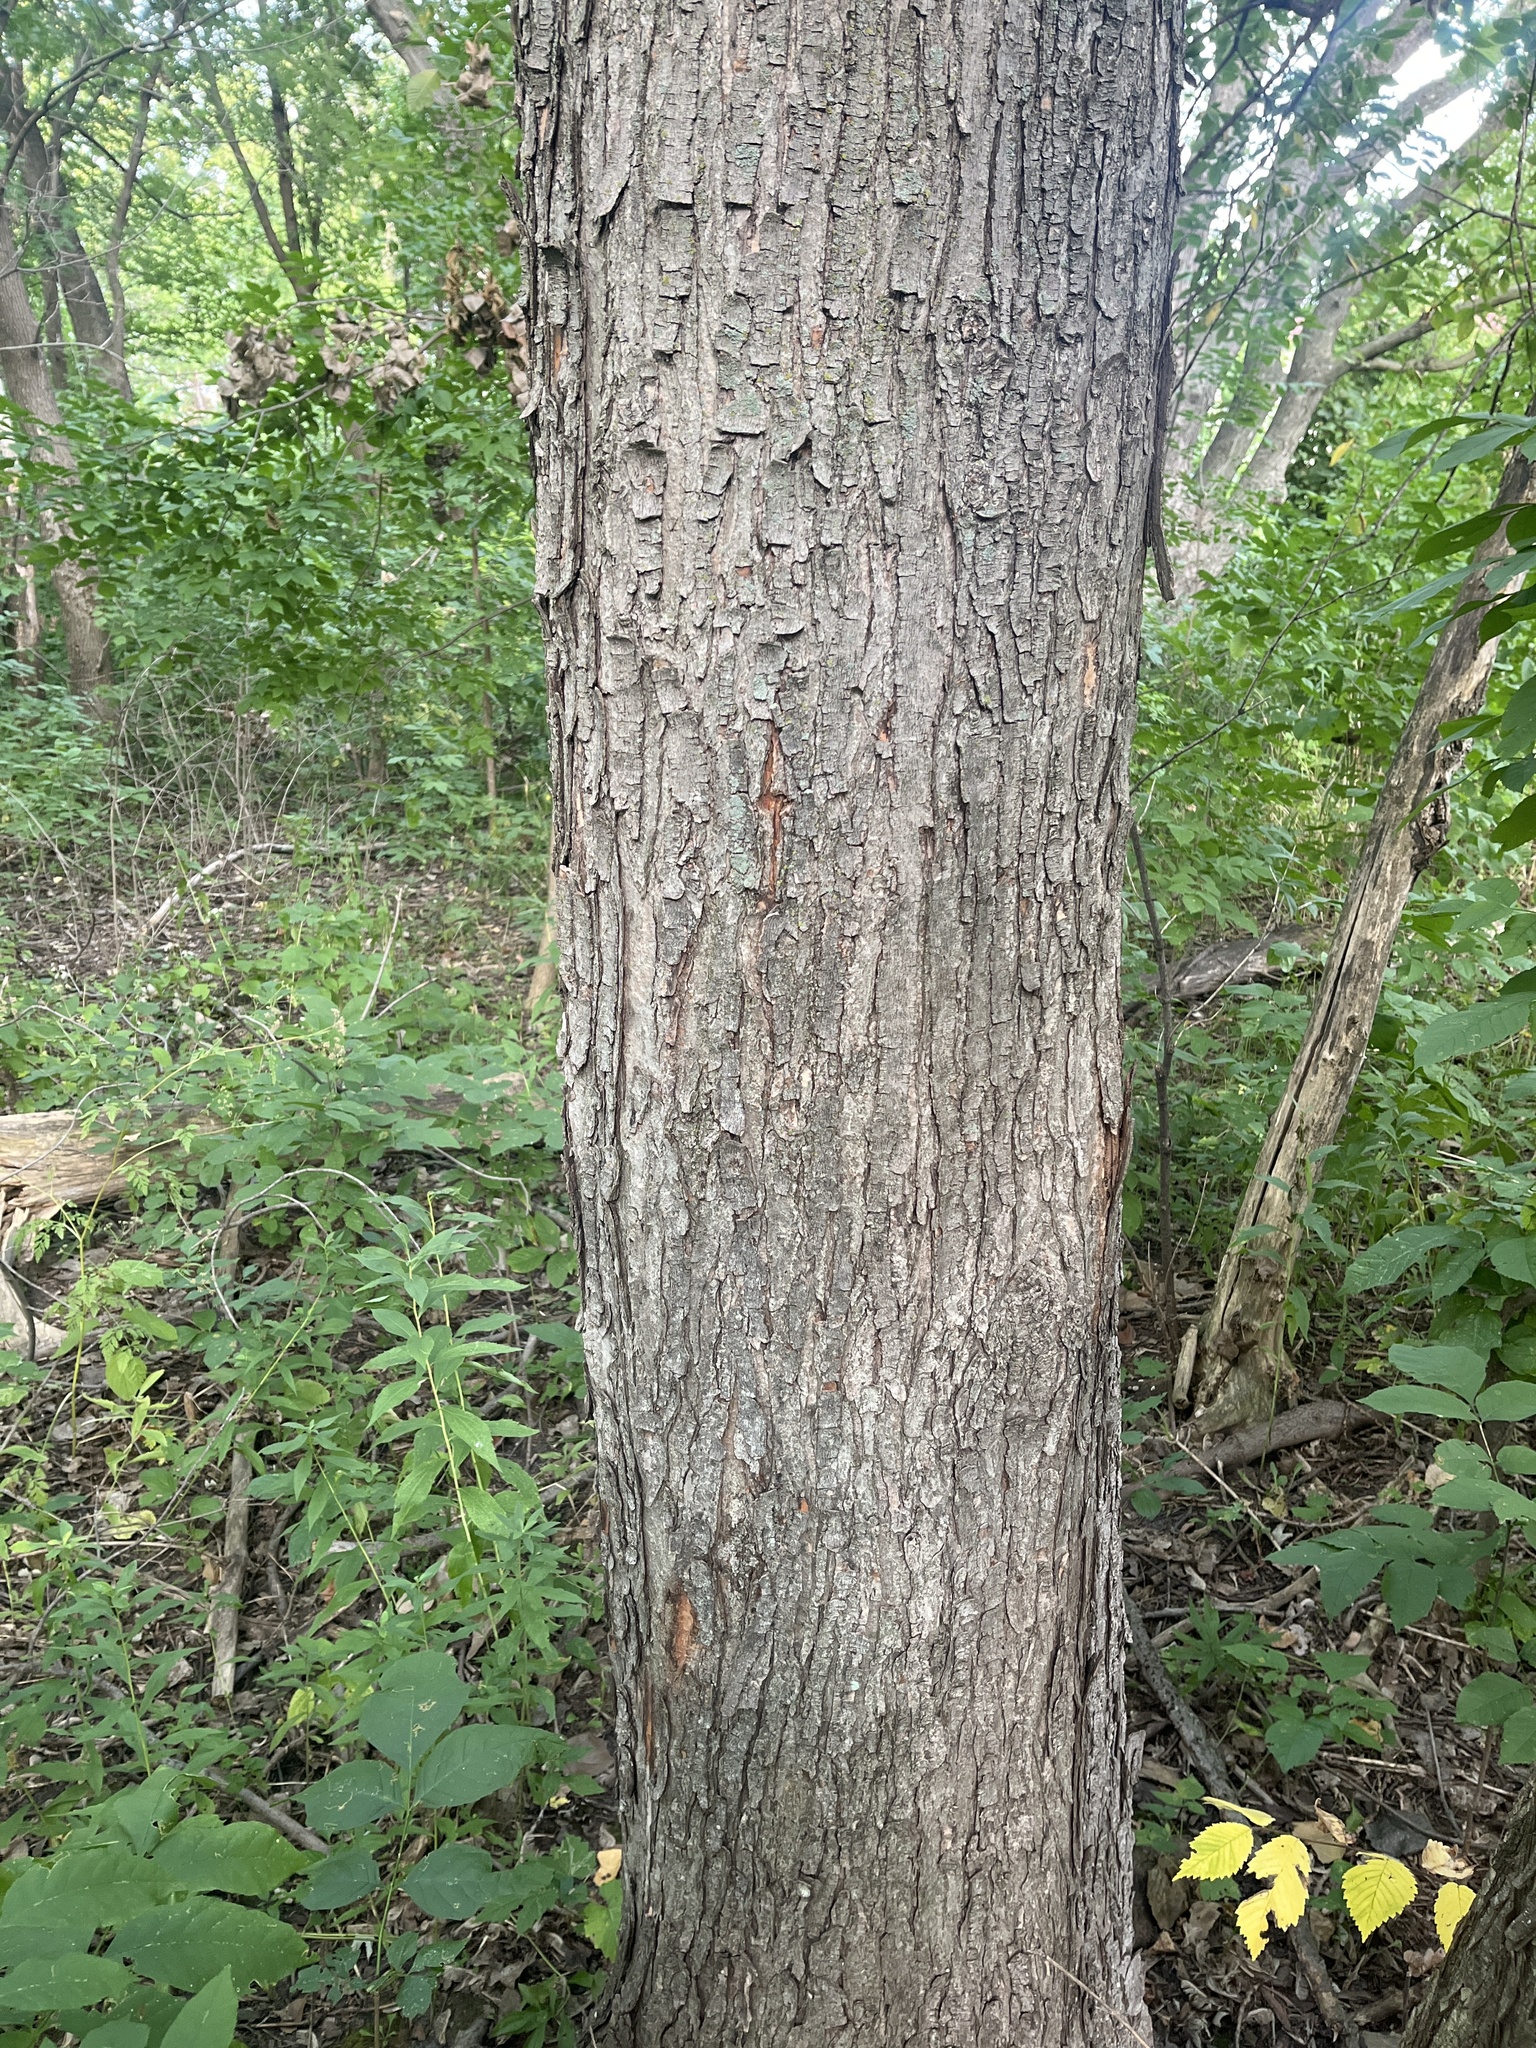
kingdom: Plantae
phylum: Tracheophyta
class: Magnoliopsida
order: Sapindales
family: Sapindaceae
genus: Acer
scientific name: Acer saccharinum
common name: Silver maple
